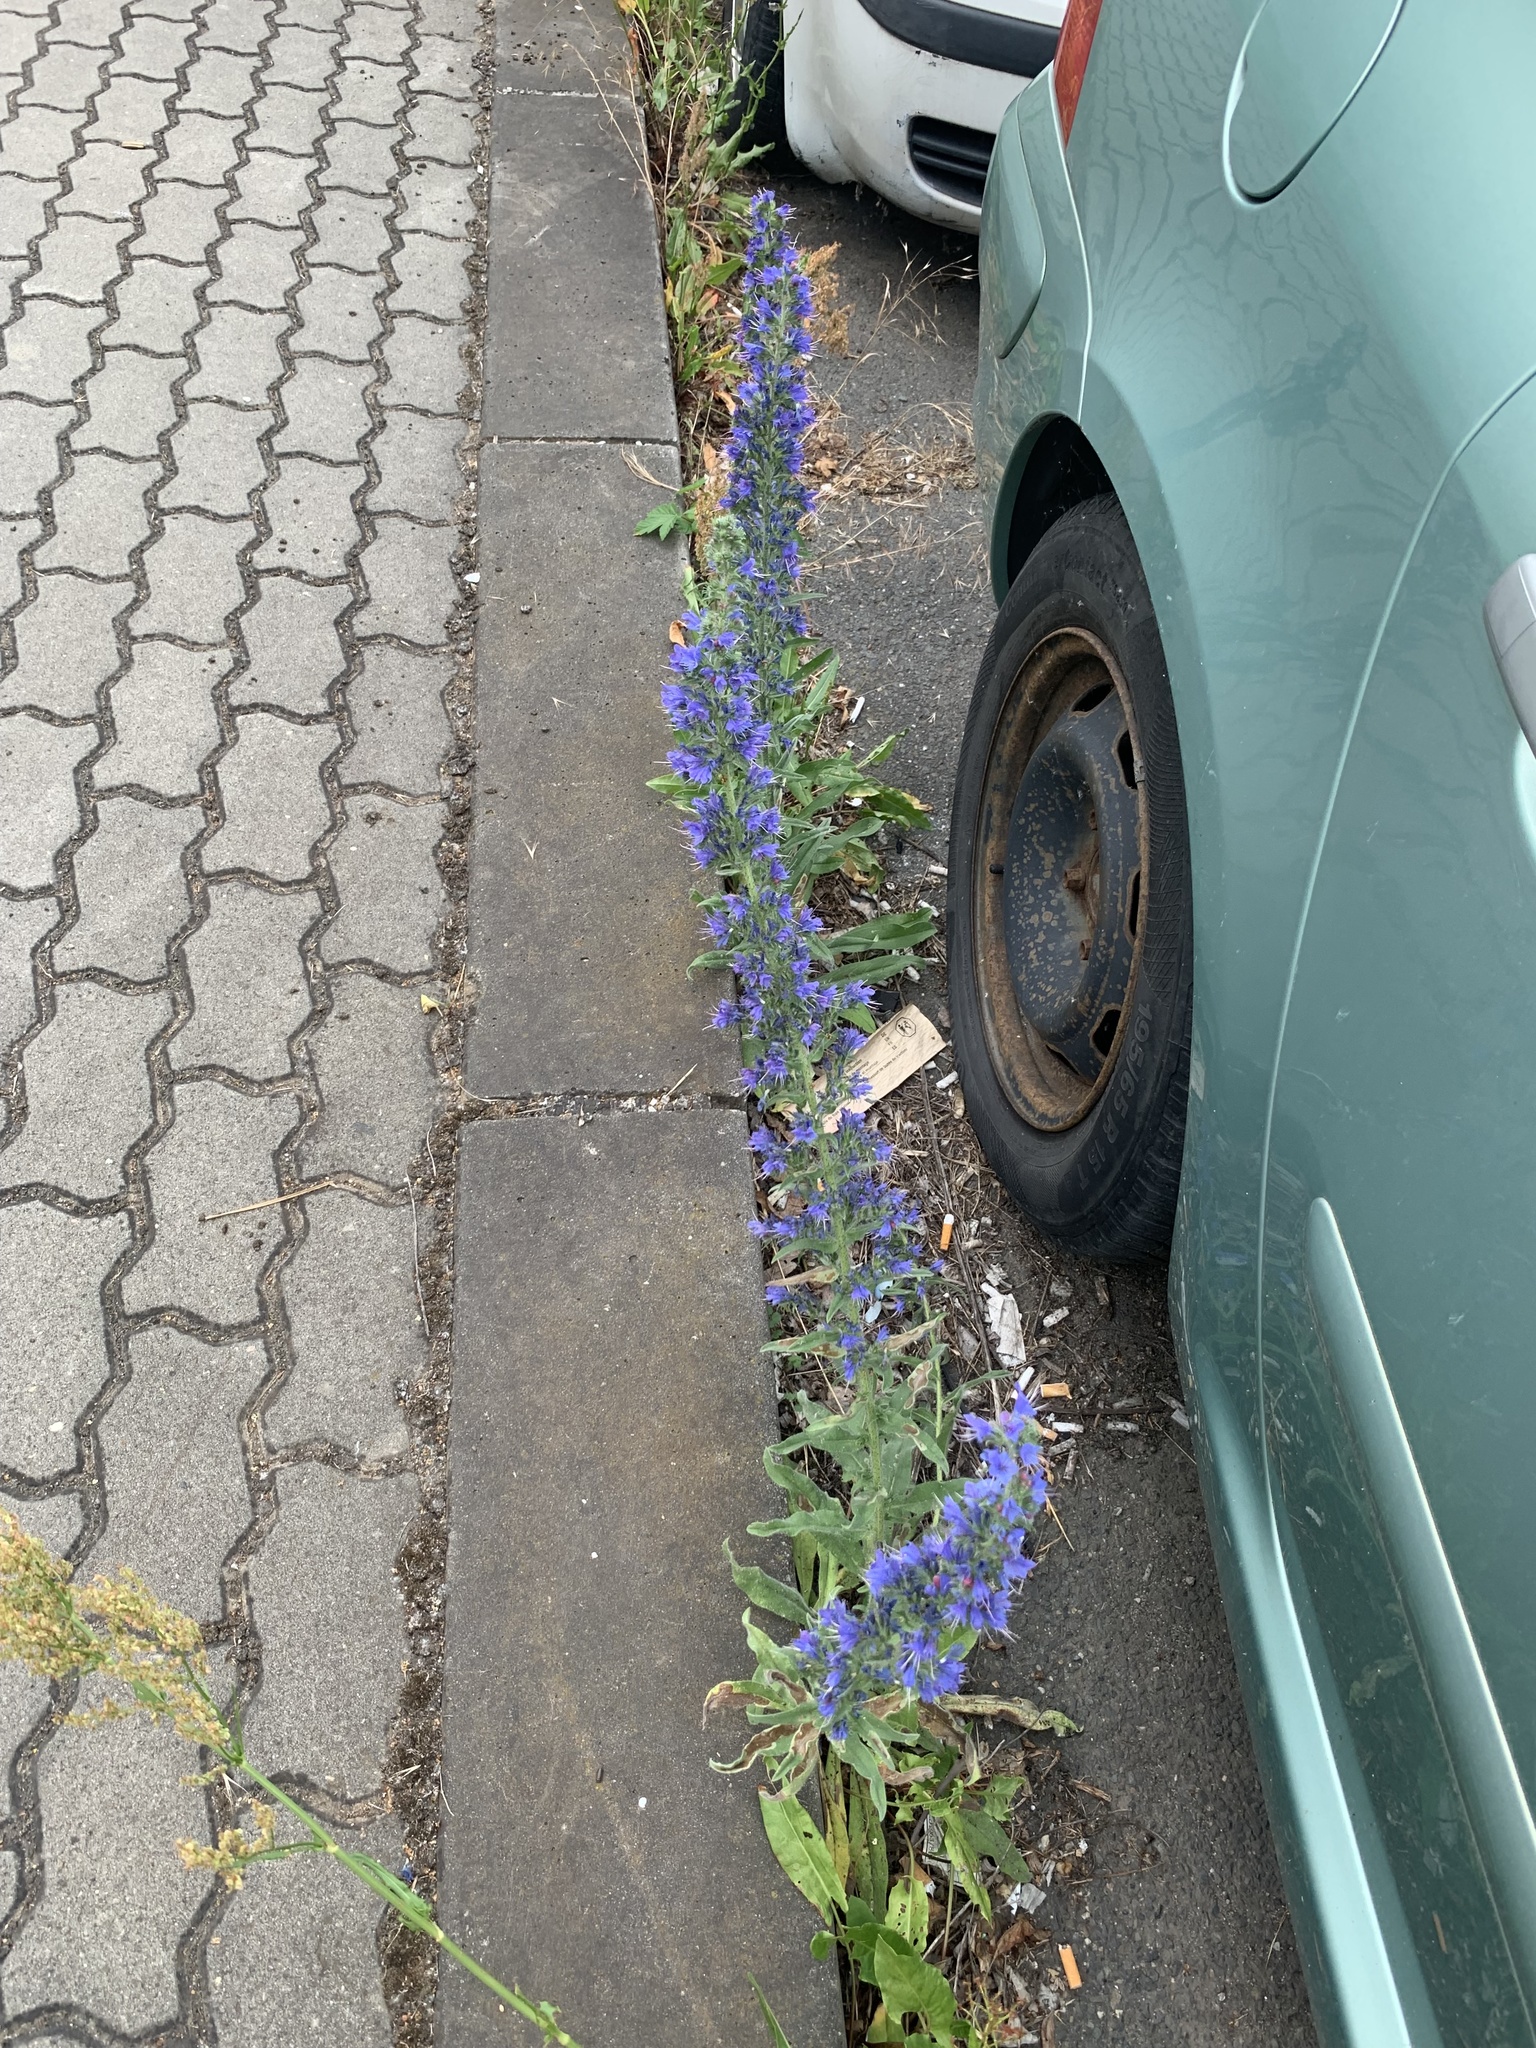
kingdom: Plantae
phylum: Tracheophyta
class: Magnoliopsida
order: Boraginales
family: Boraginaceae
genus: Echium
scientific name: Echium vulgare
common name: Common viper's bugloss
